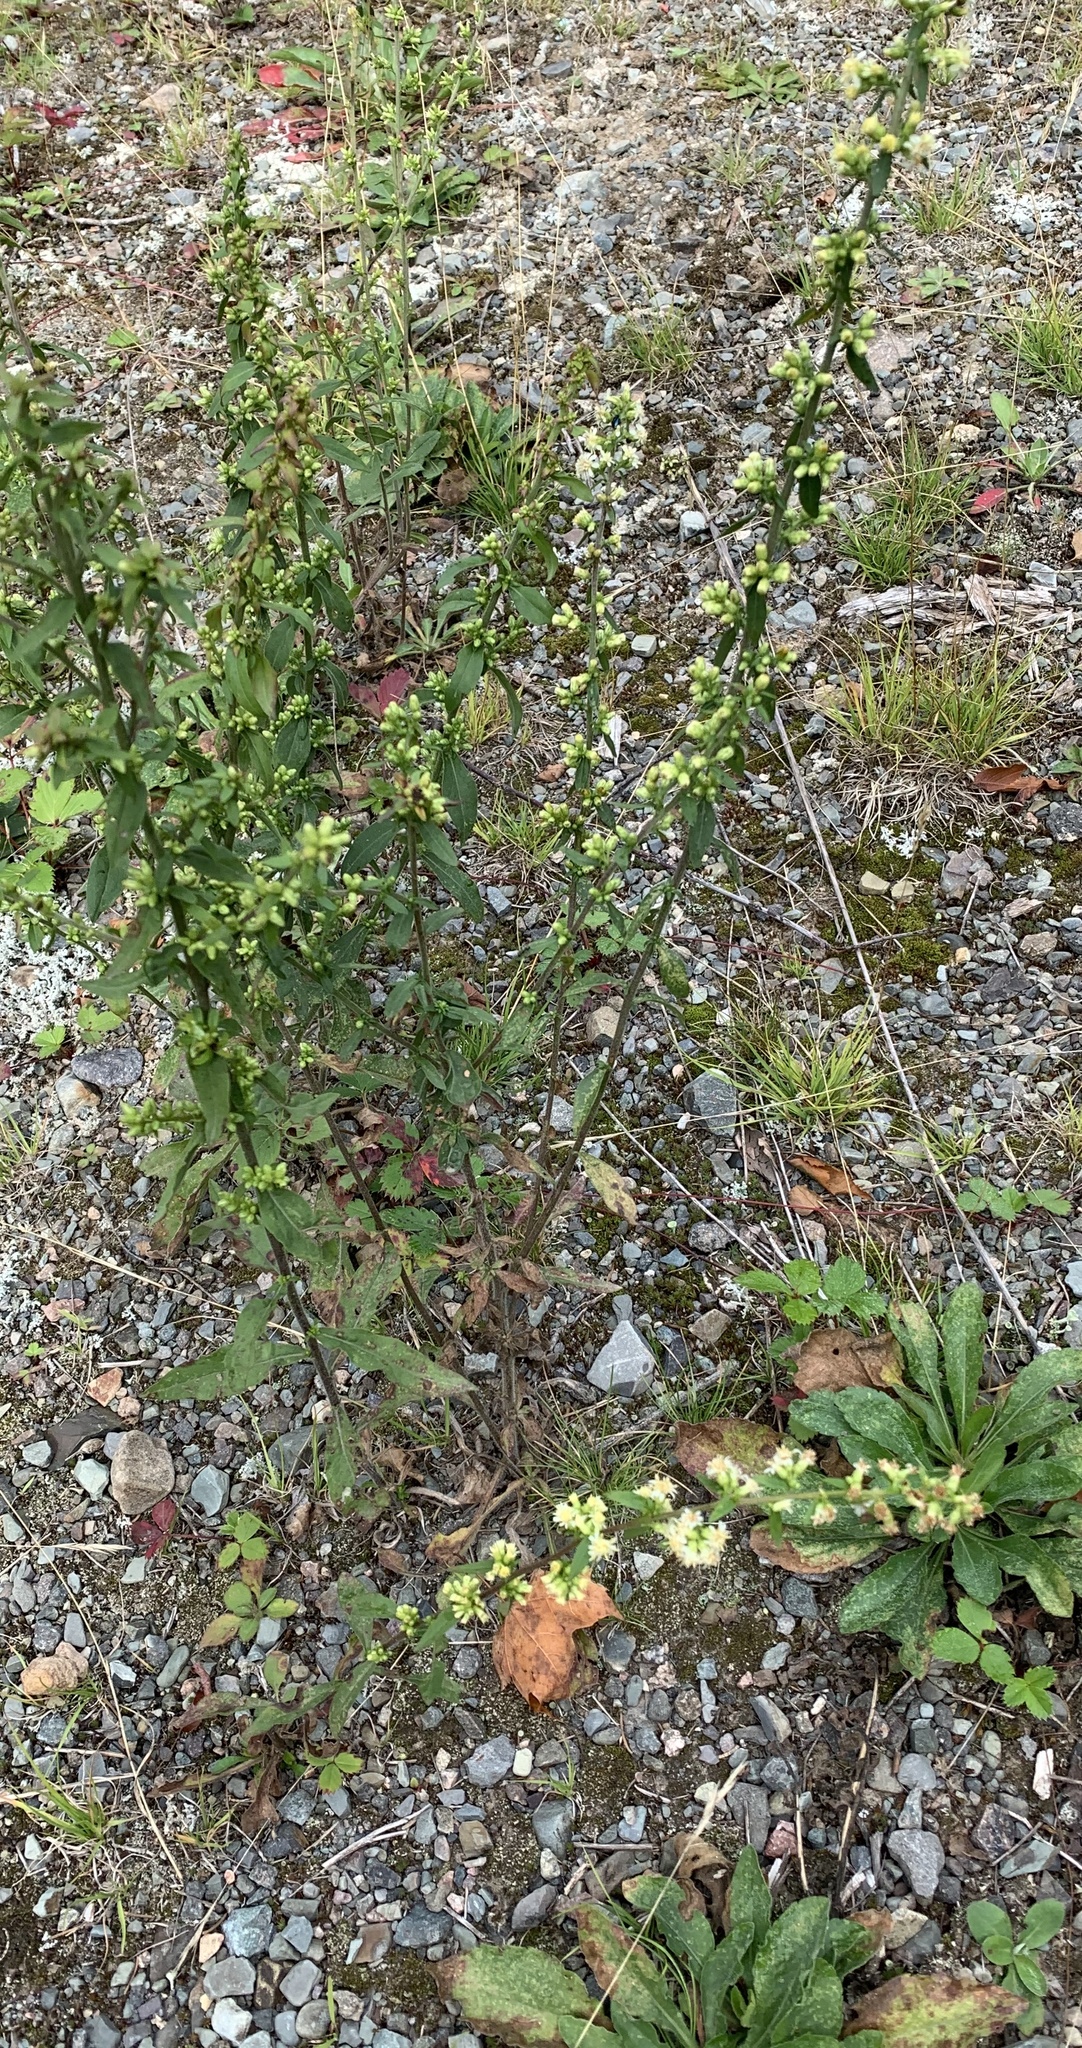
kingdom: Plantae
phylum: Tracheophyta
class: Magnoliopsida
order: Asterales
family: Asteraceae
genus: Solidago
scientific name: Solidago bicolor
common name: Silverrod
